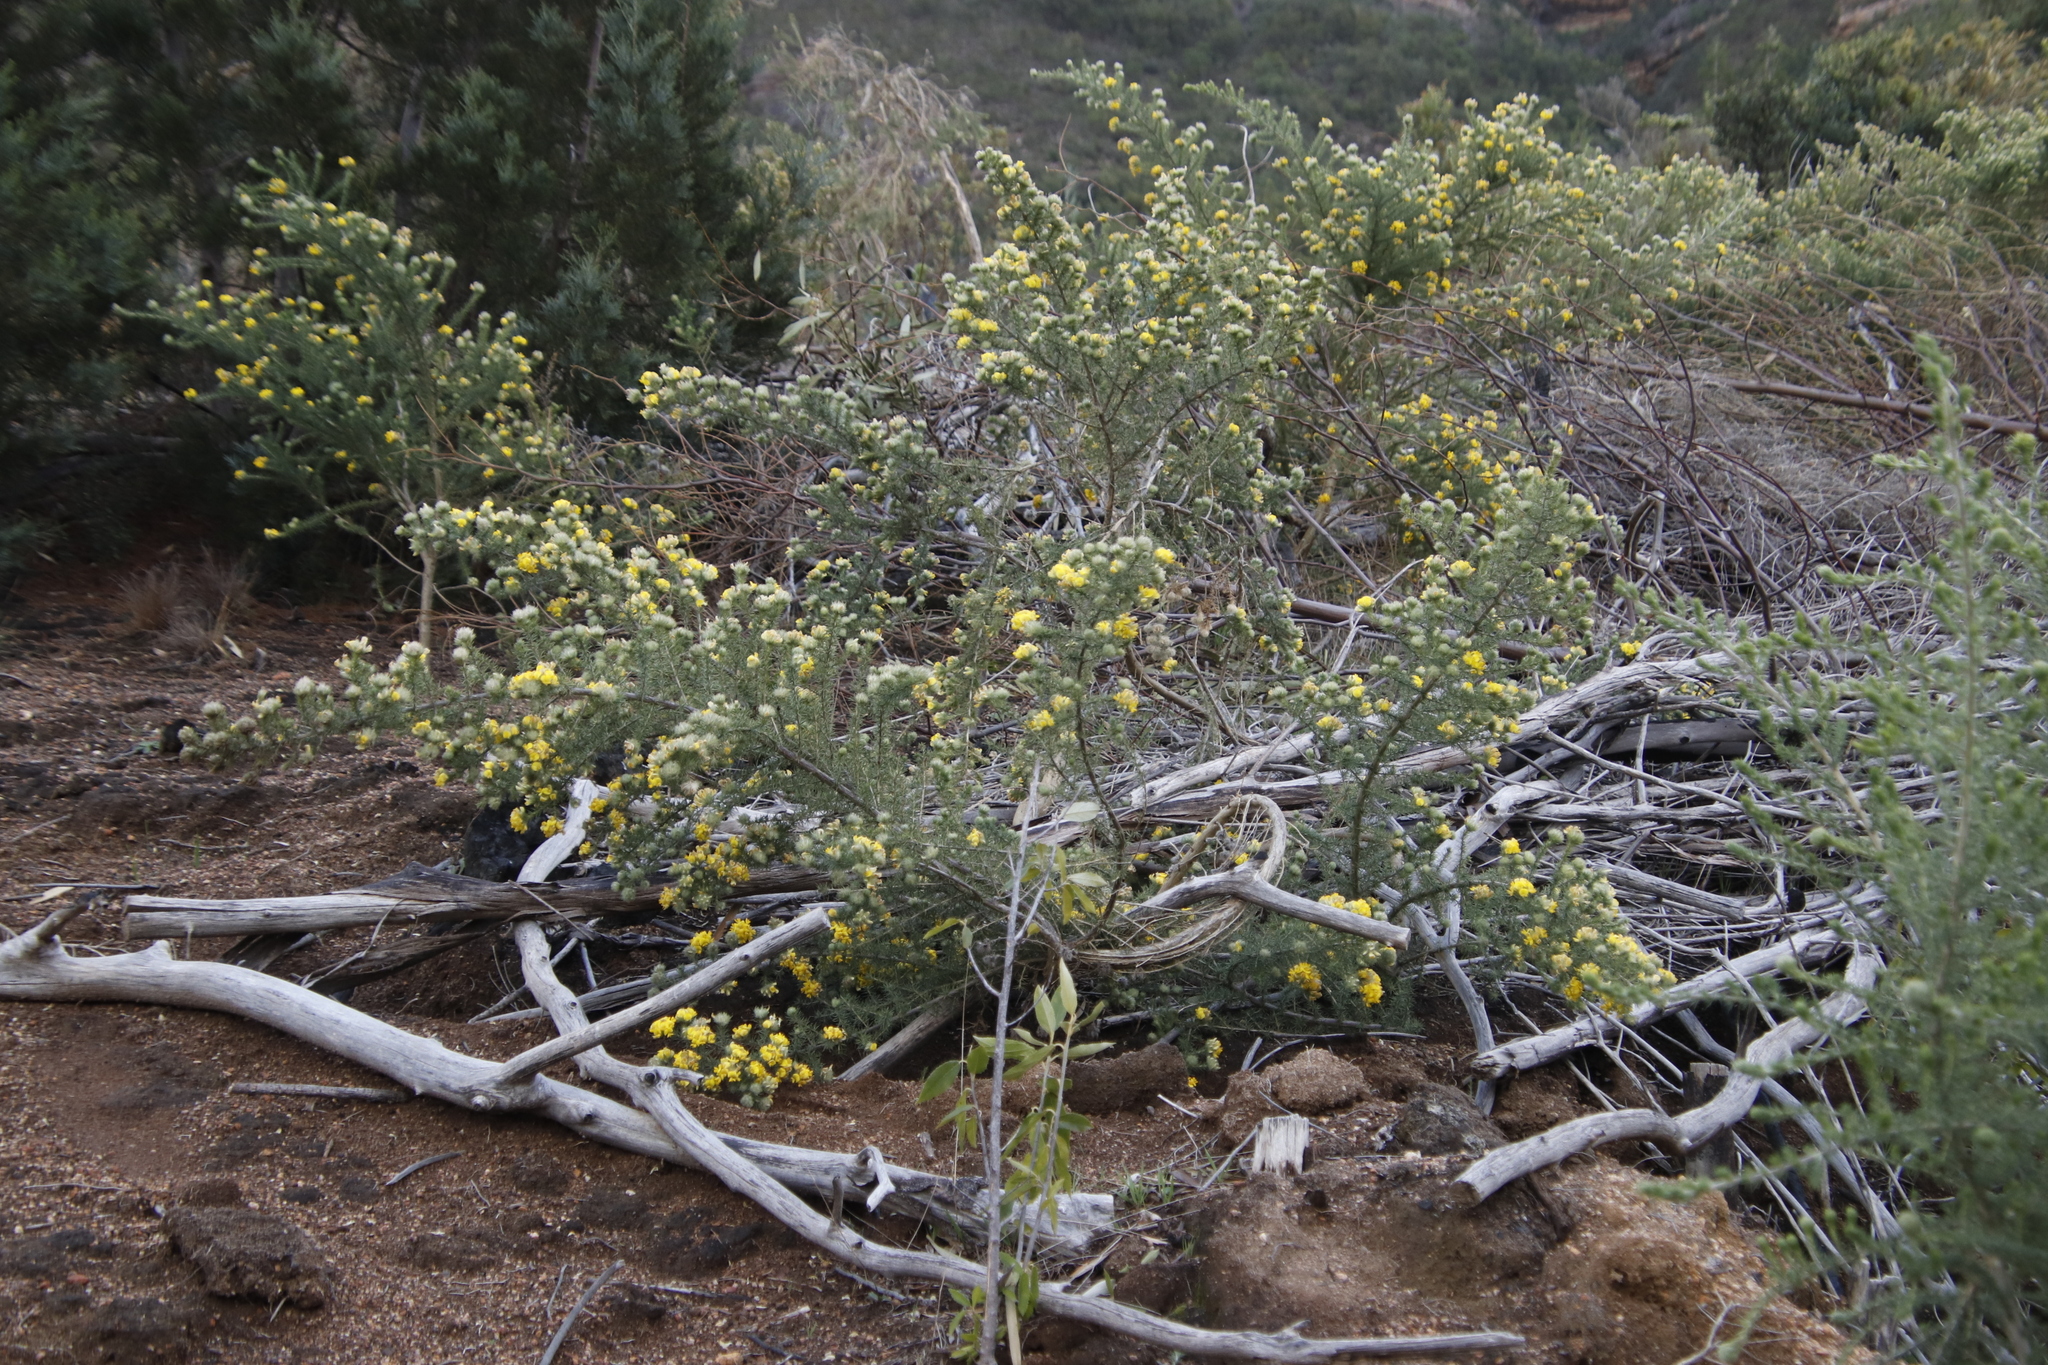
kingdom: Plantae
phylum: Tracheophyta
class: Magnoliopsida
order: Fabales
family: Fabaceae
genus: Aspalathus
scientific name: Aspalathus chenopoda
